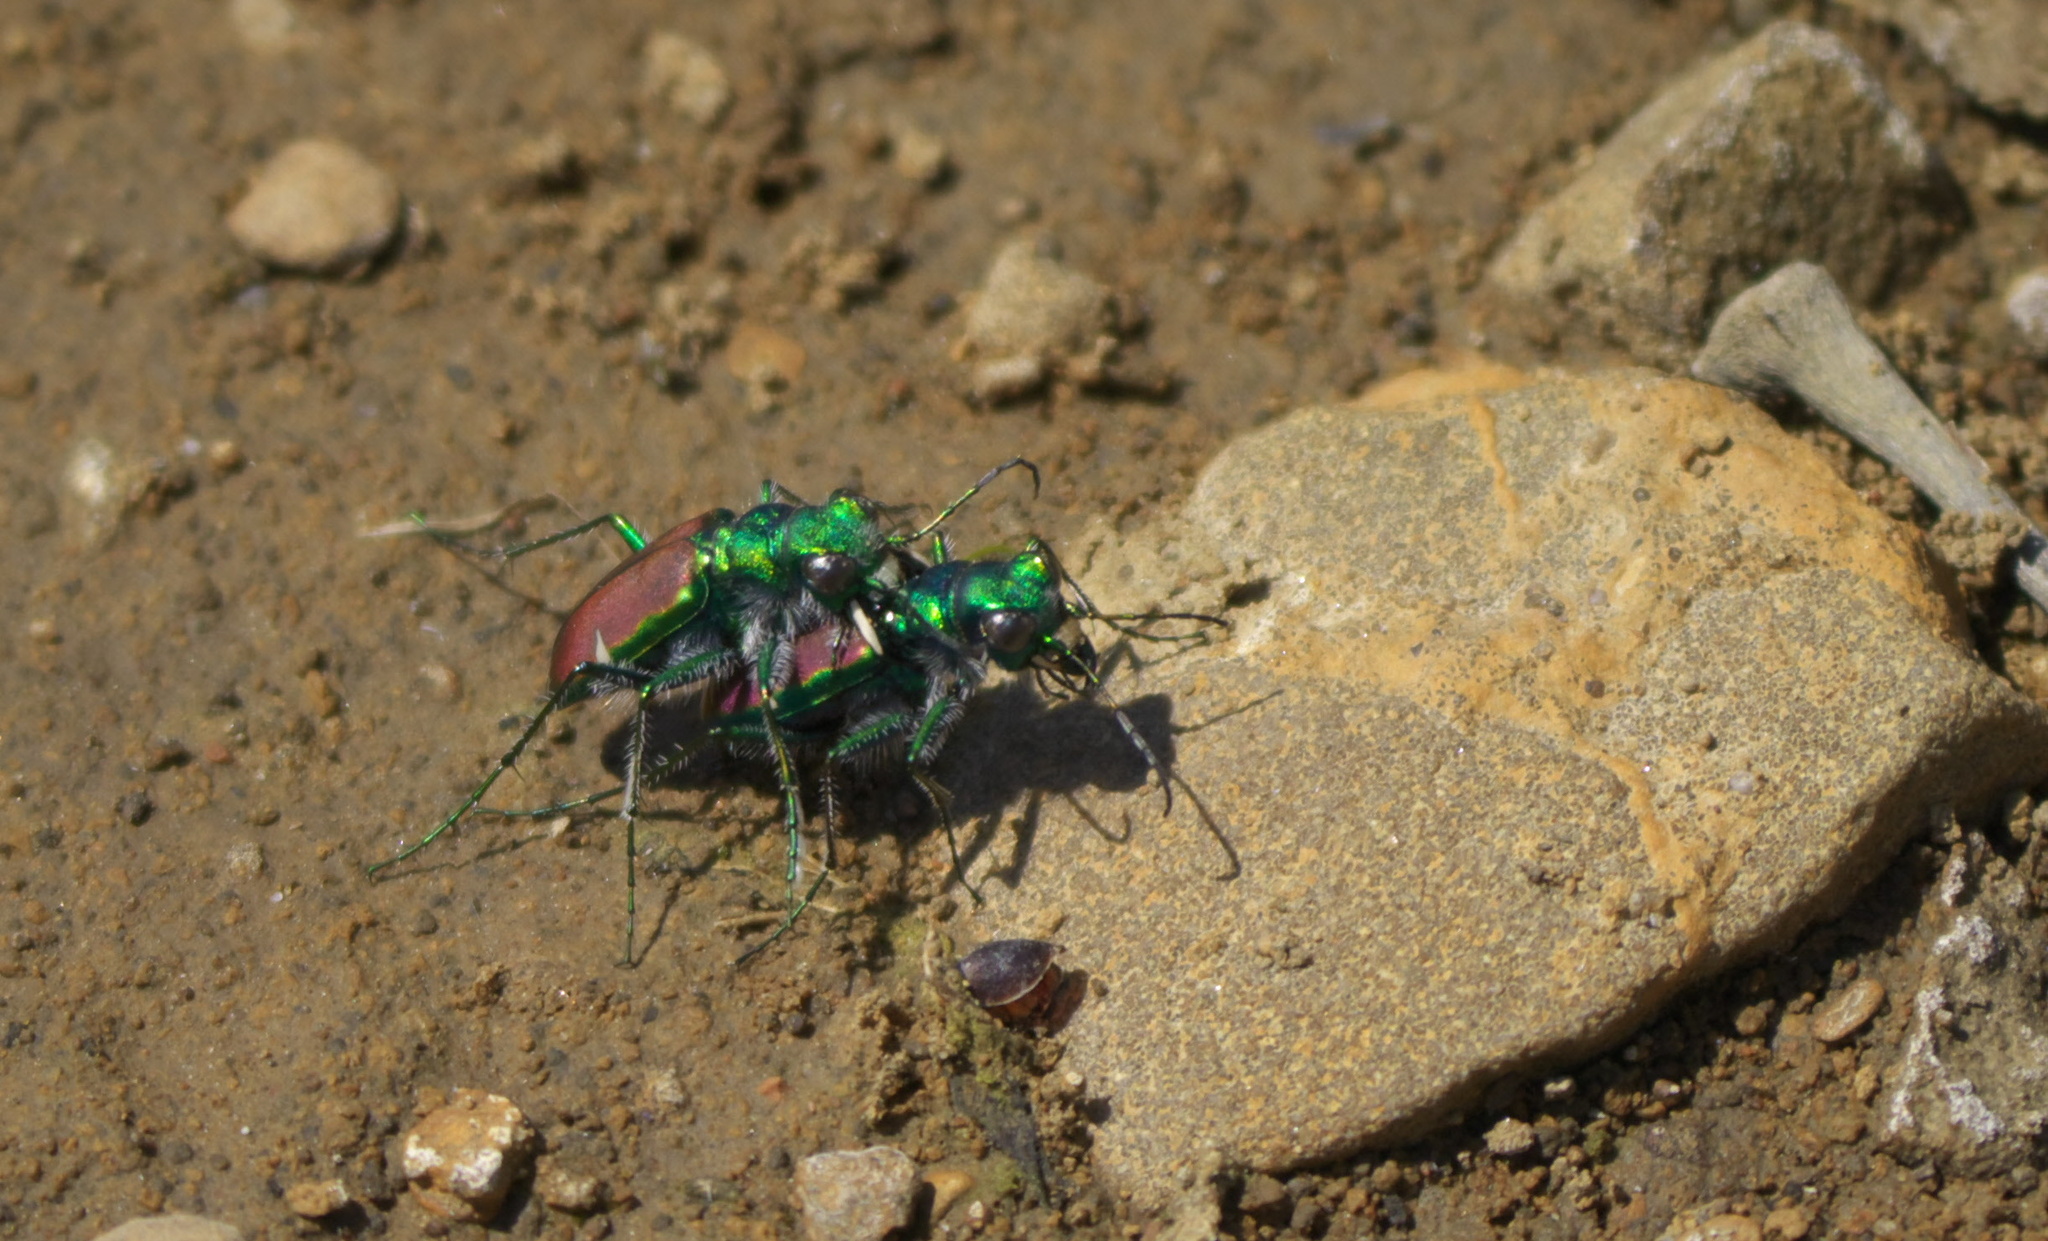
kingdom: Animalia
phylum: Arthropoda
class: Insecta
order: Coleoptera
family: Carabidae
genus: Cicindela
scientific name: Cicindela splendida
